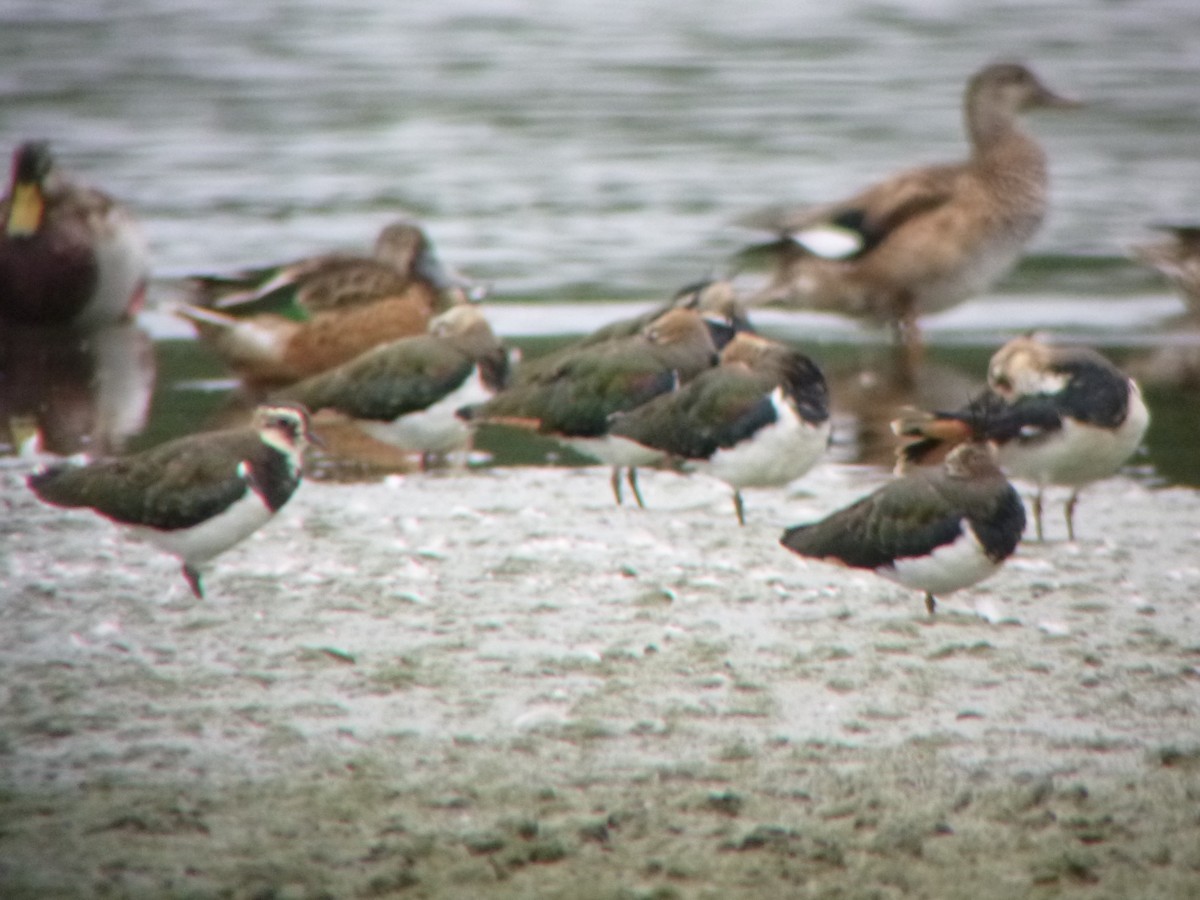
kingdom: Animalia
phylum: Chordata
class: Aves
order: Anseriformes
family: Anatidae
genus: Mareca
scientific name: Mareca strepera
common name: Gadwall
